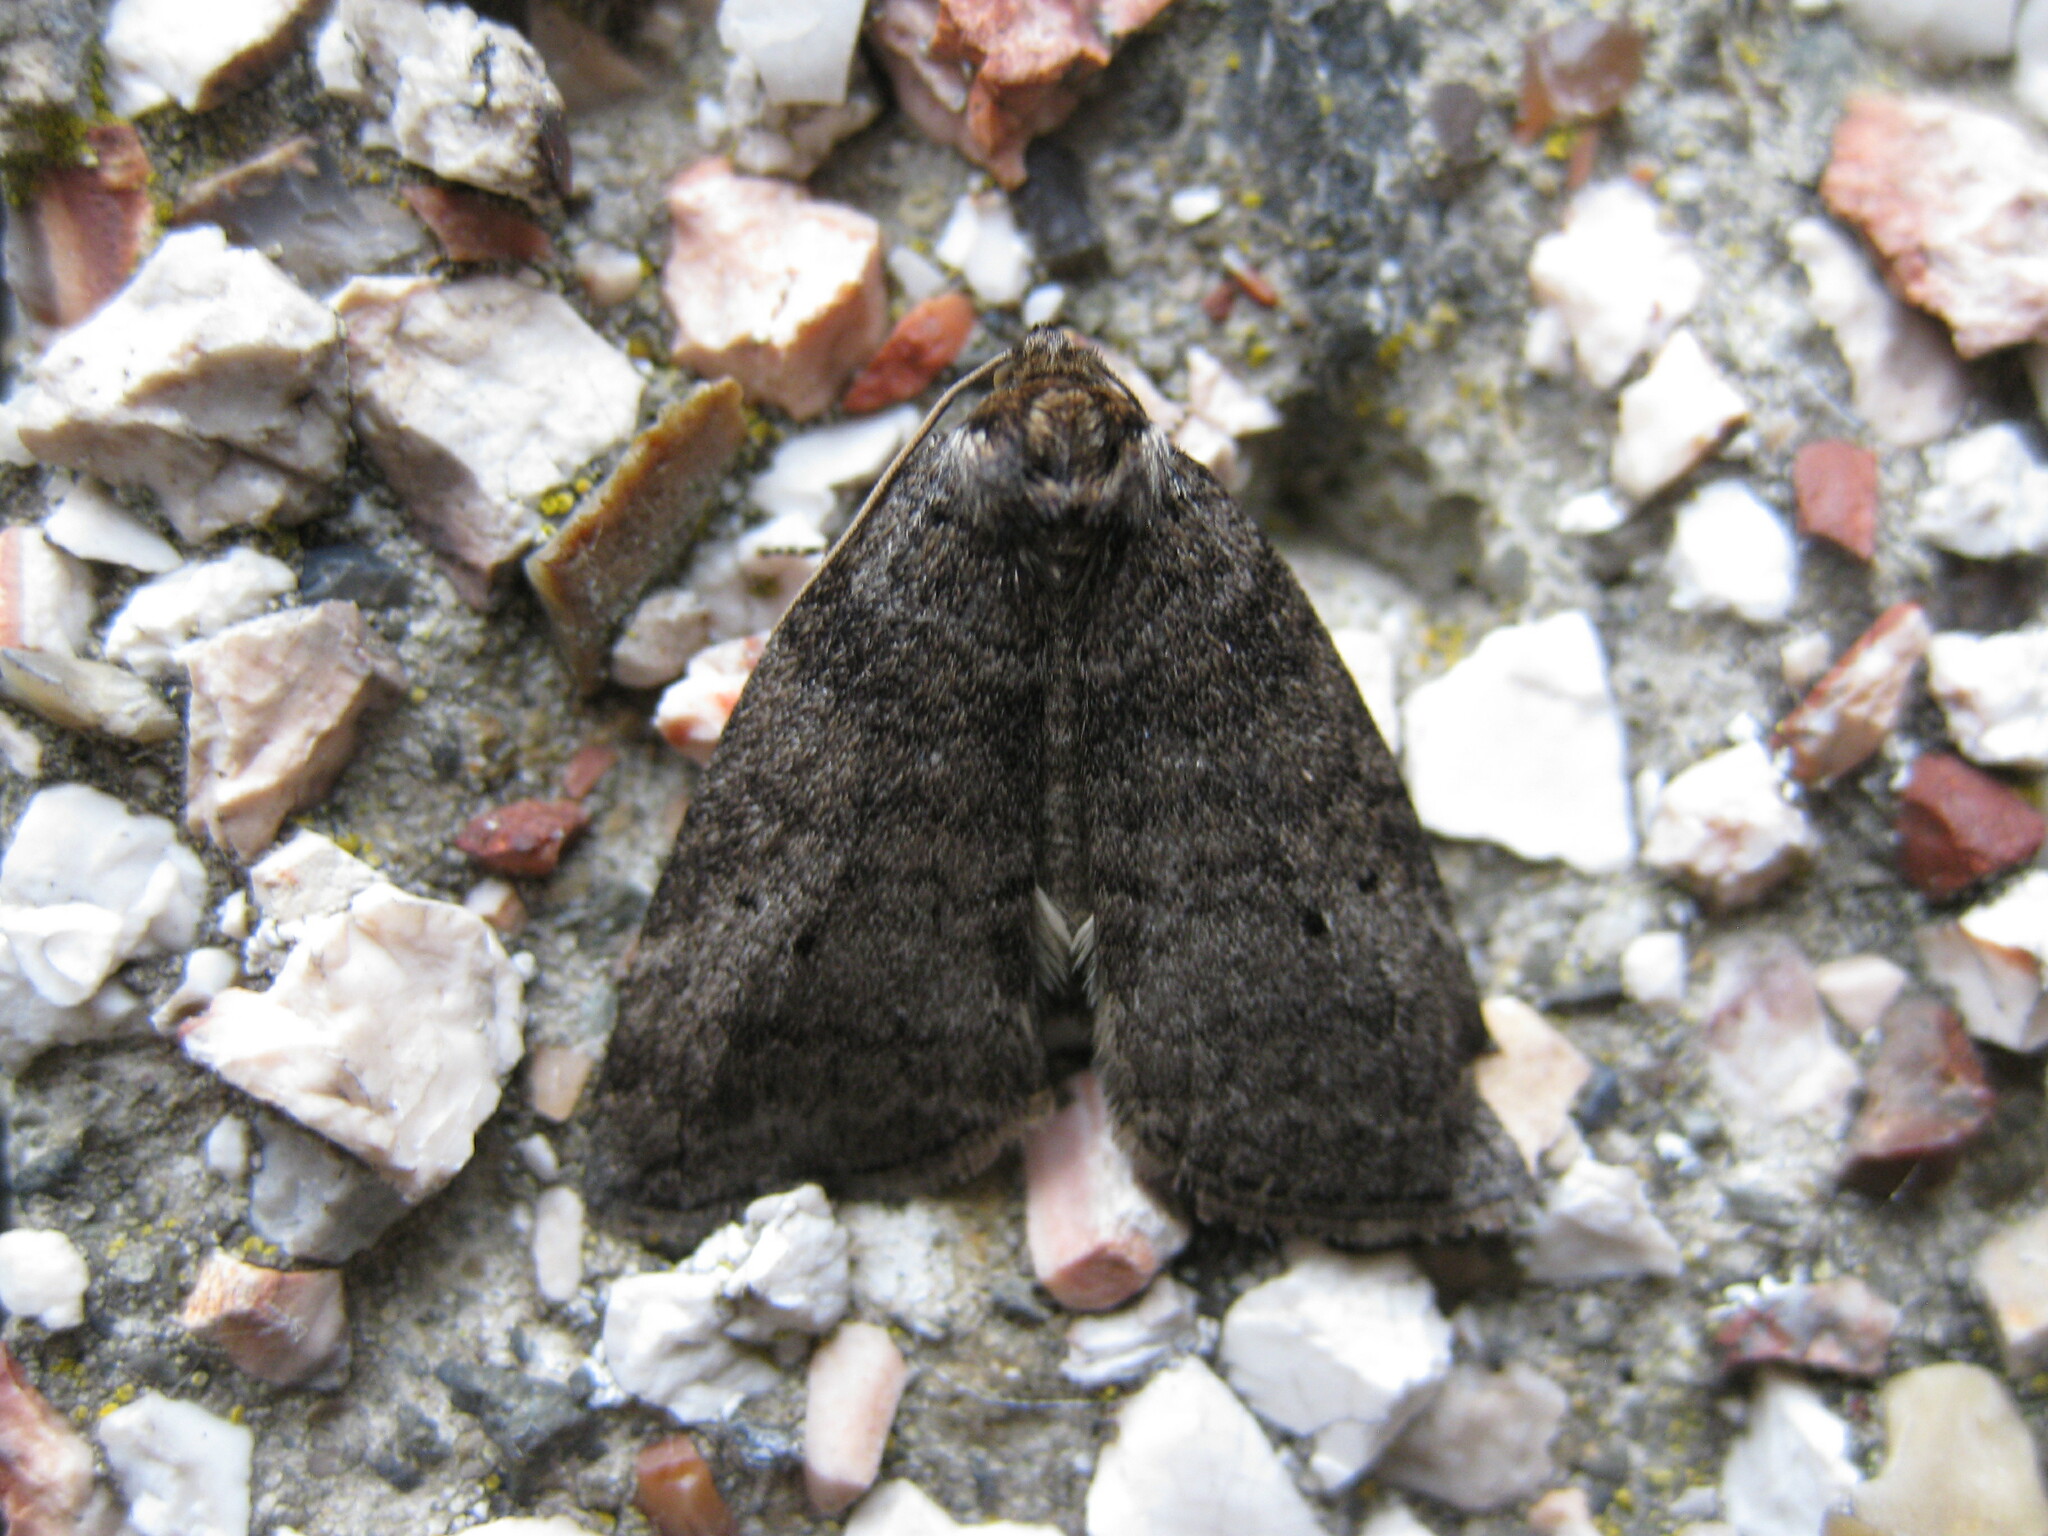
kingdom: Animalia
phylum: Arthropoda
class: Insecta
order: Lepidoptera
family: Drepanidae
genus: Ochropacha
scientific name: Ochropacha duplaris
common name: Common lutestring
